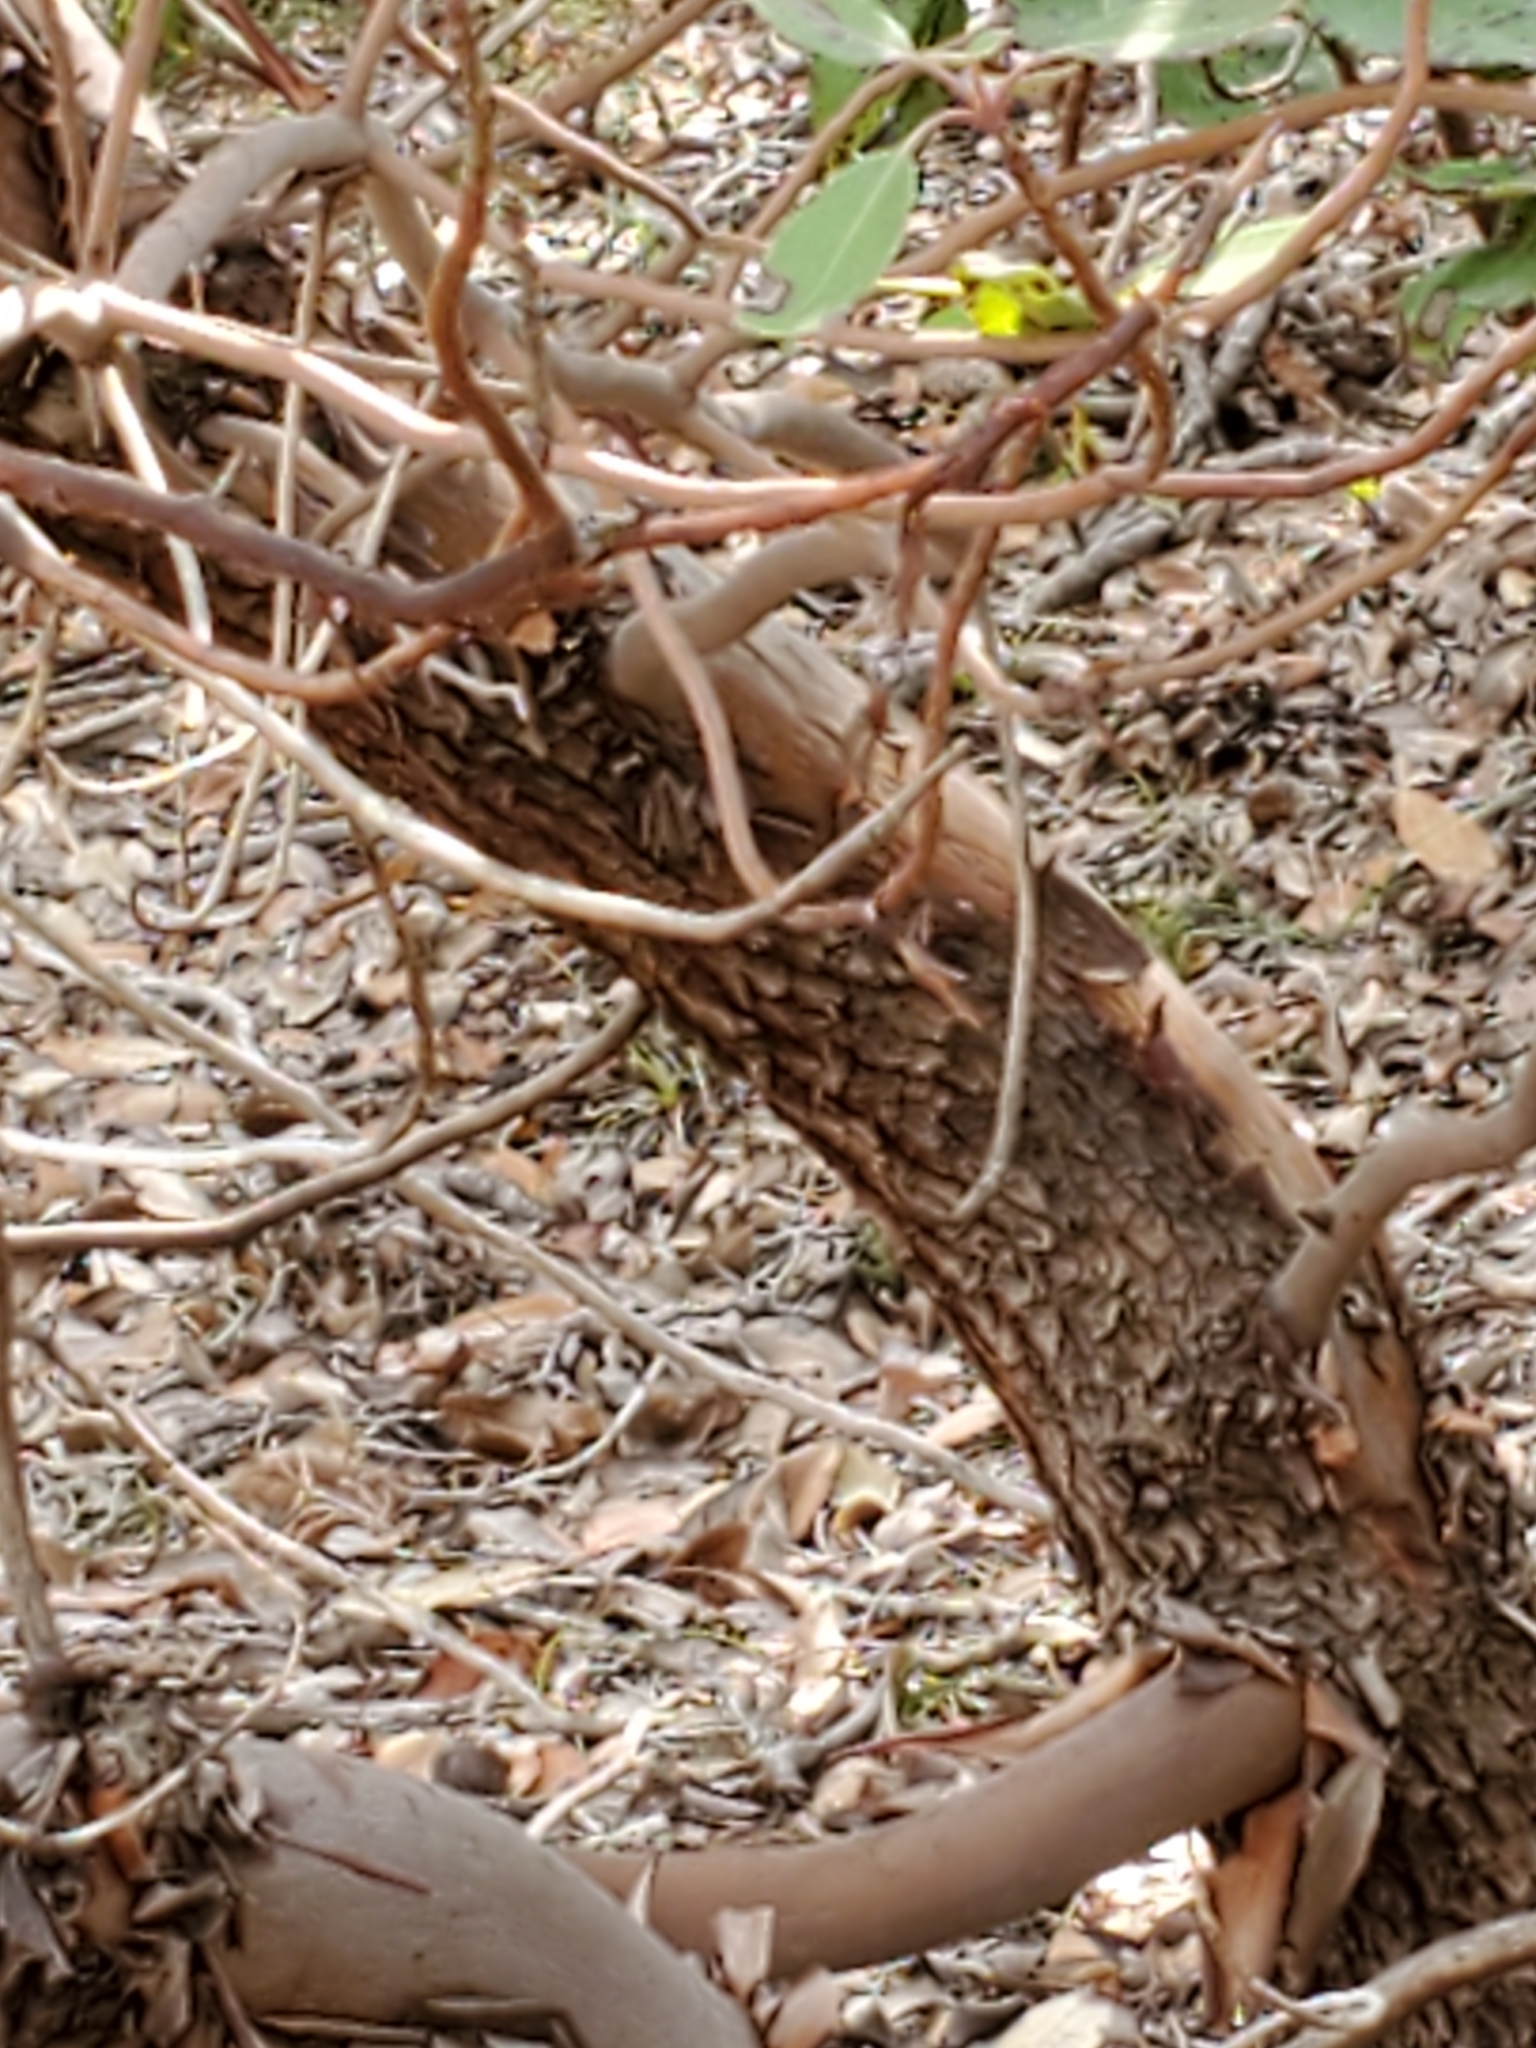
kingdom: Plantae
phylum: Tracheophyta
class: Magnoliopsida
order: Ericales
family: Ericaceae
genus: Arbutus
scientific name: Arbutus xalapensis
